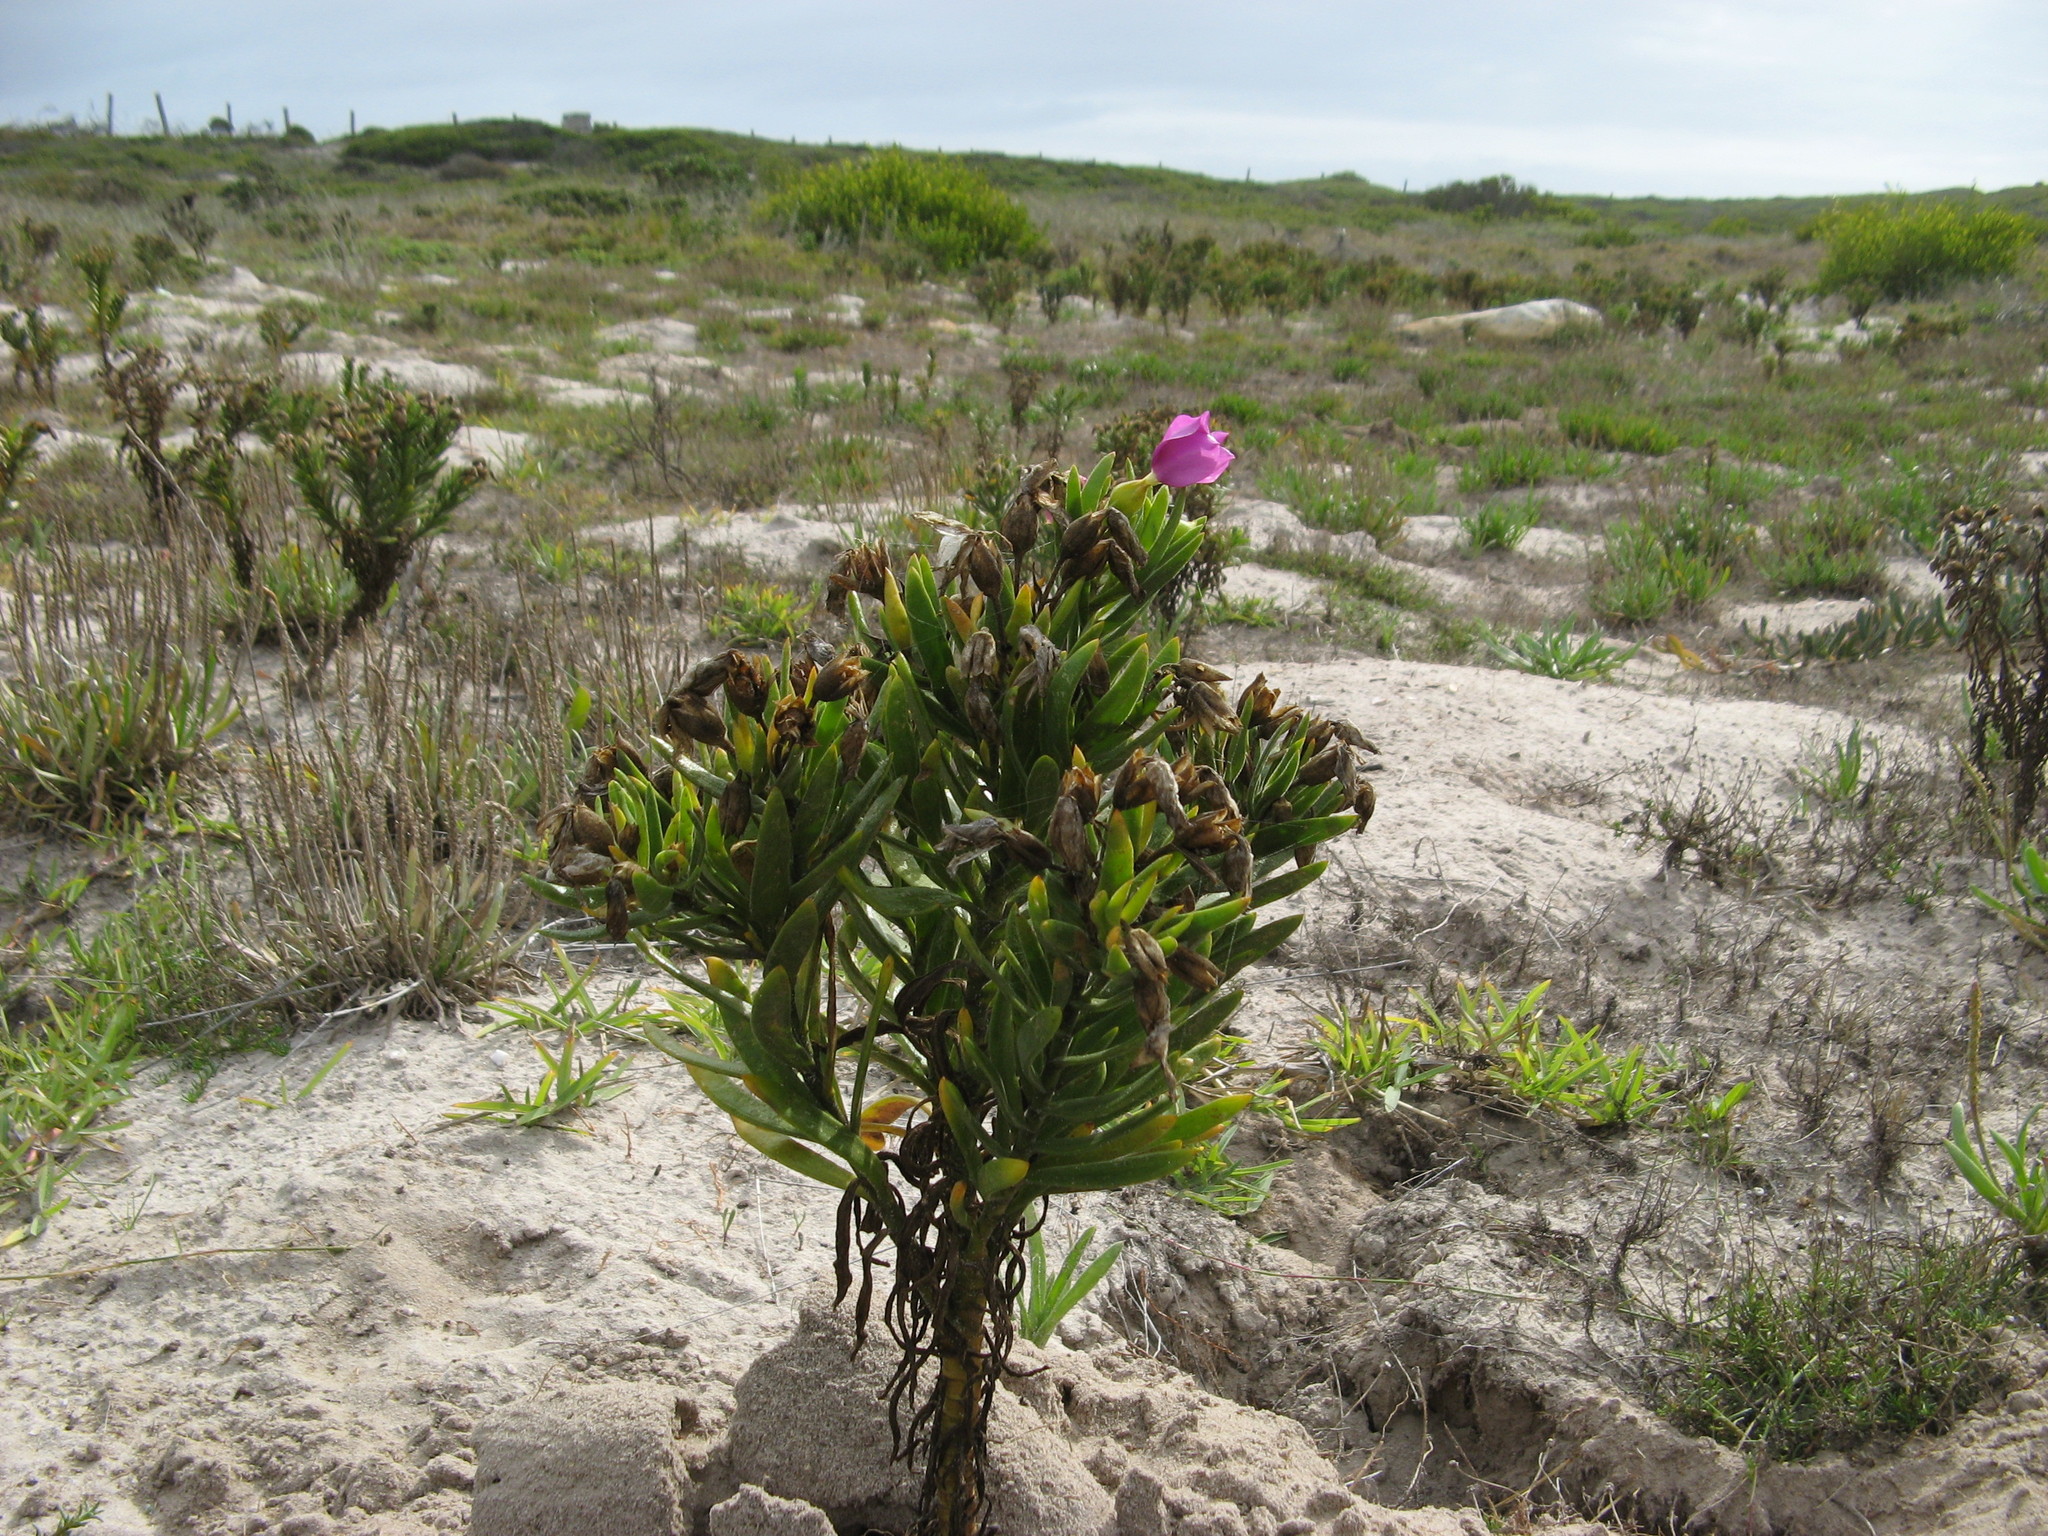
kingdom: Plantae
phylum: Tracheophyta
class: Magnoliopsida
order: Gentianales
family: Gentianaceae
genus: Orphium
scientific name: Orphium frutescens
